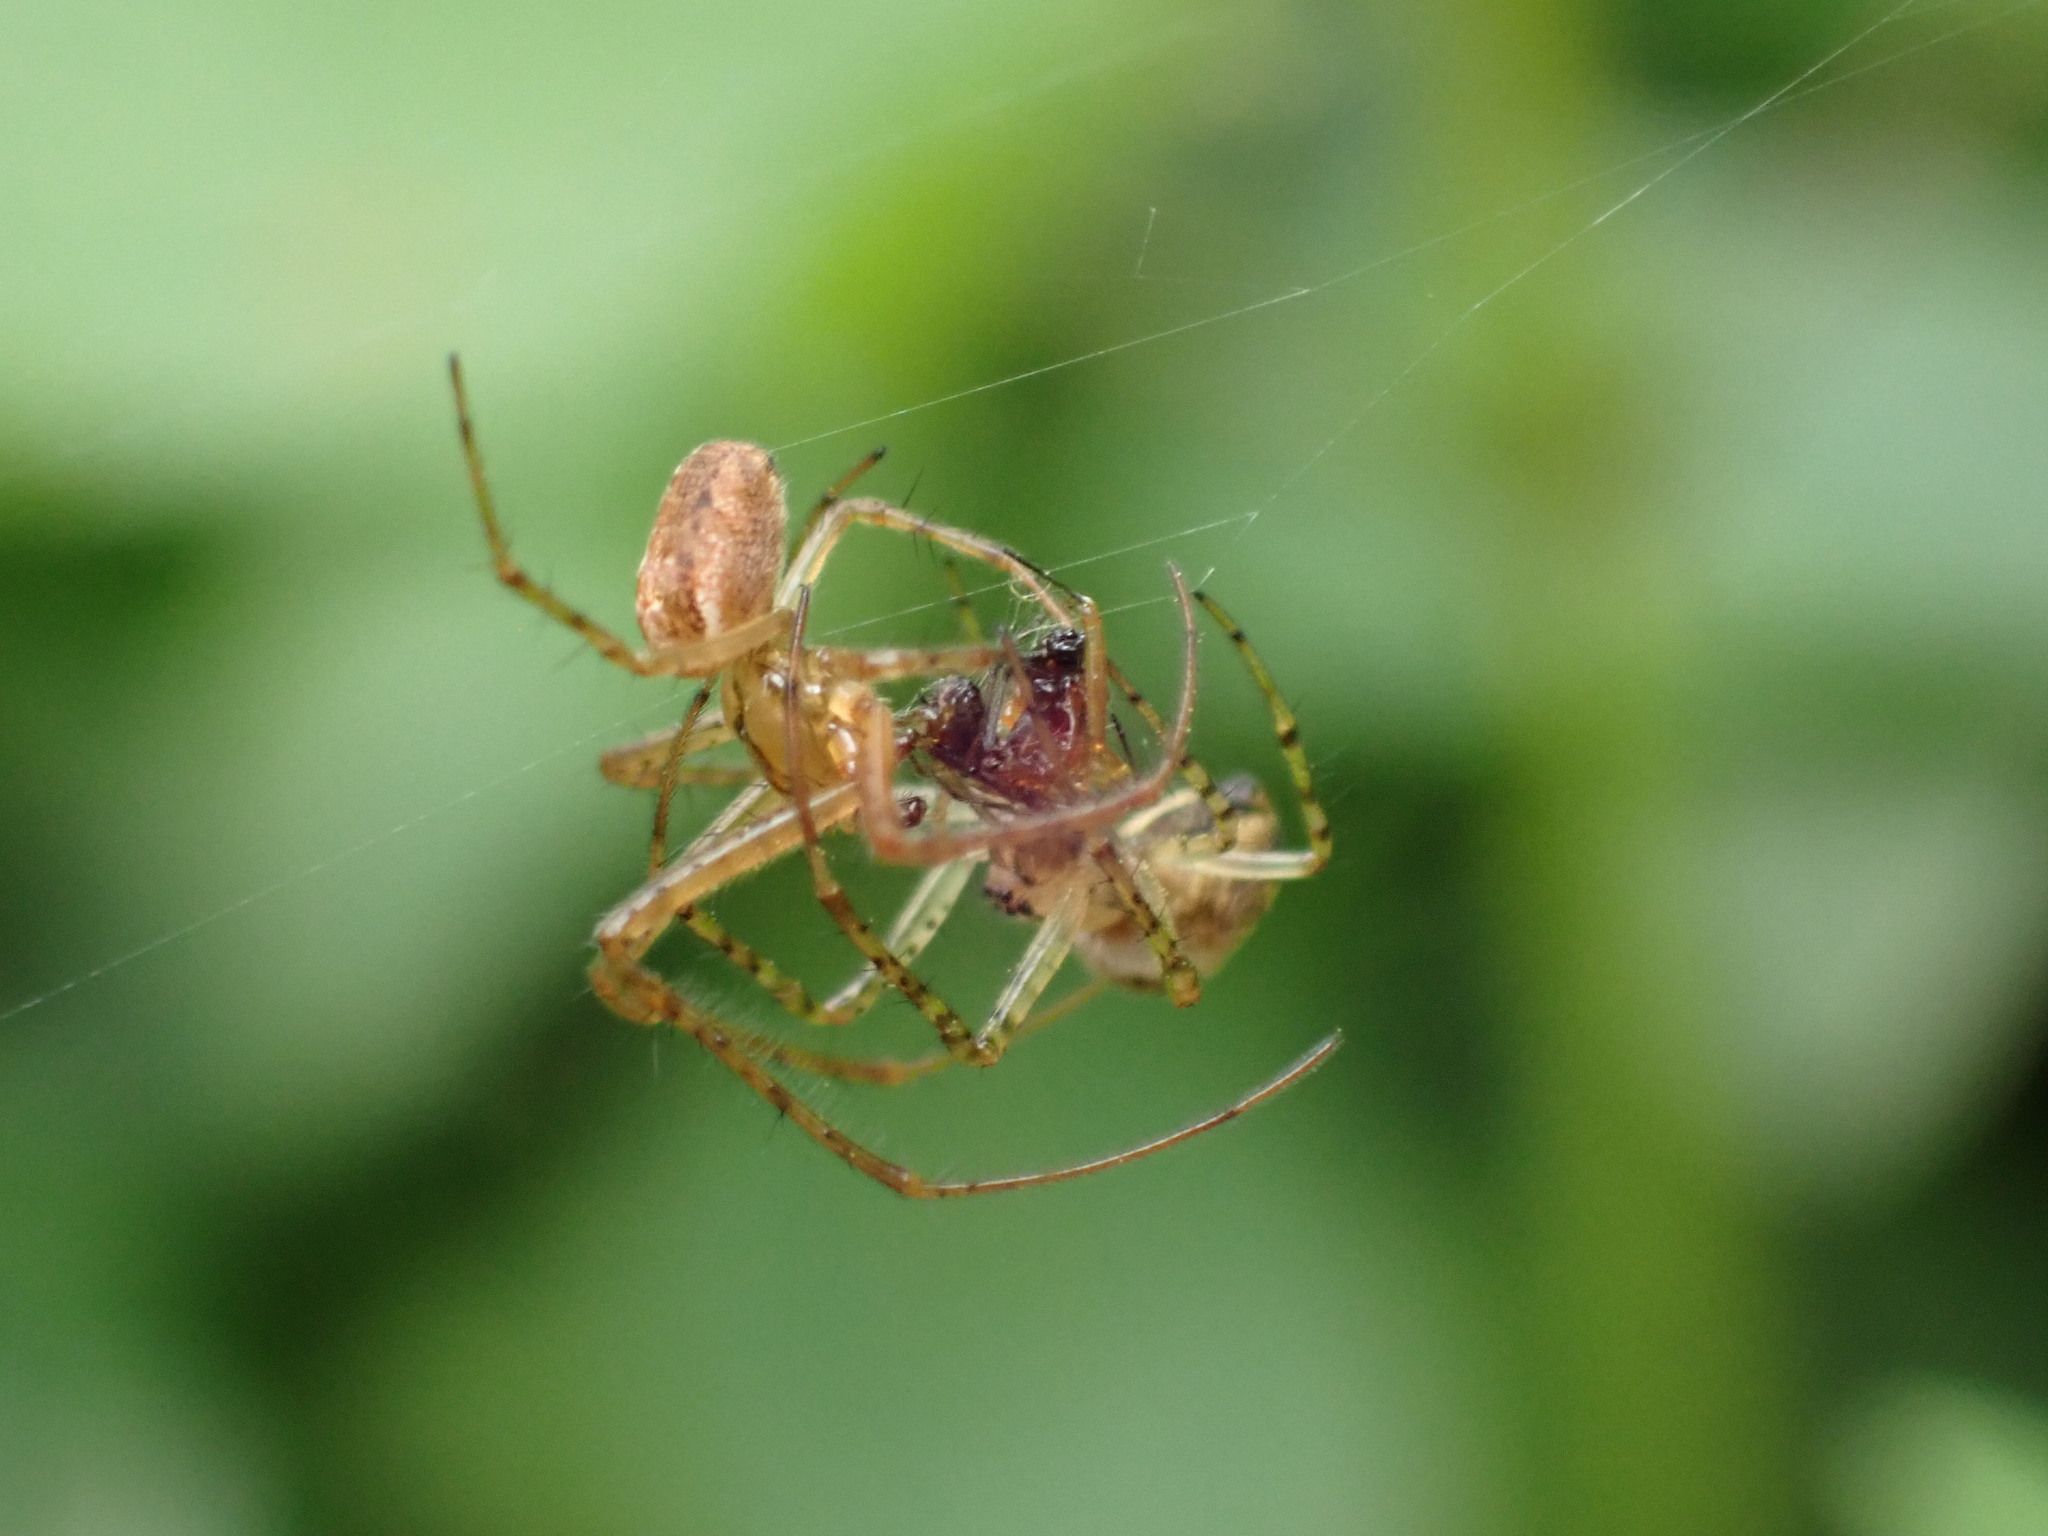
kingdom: Animalia
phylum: Arthropoda
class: Arachnida
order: Araneae
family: Tetragnathidae
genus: Metellina
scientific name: Metellina mengei
